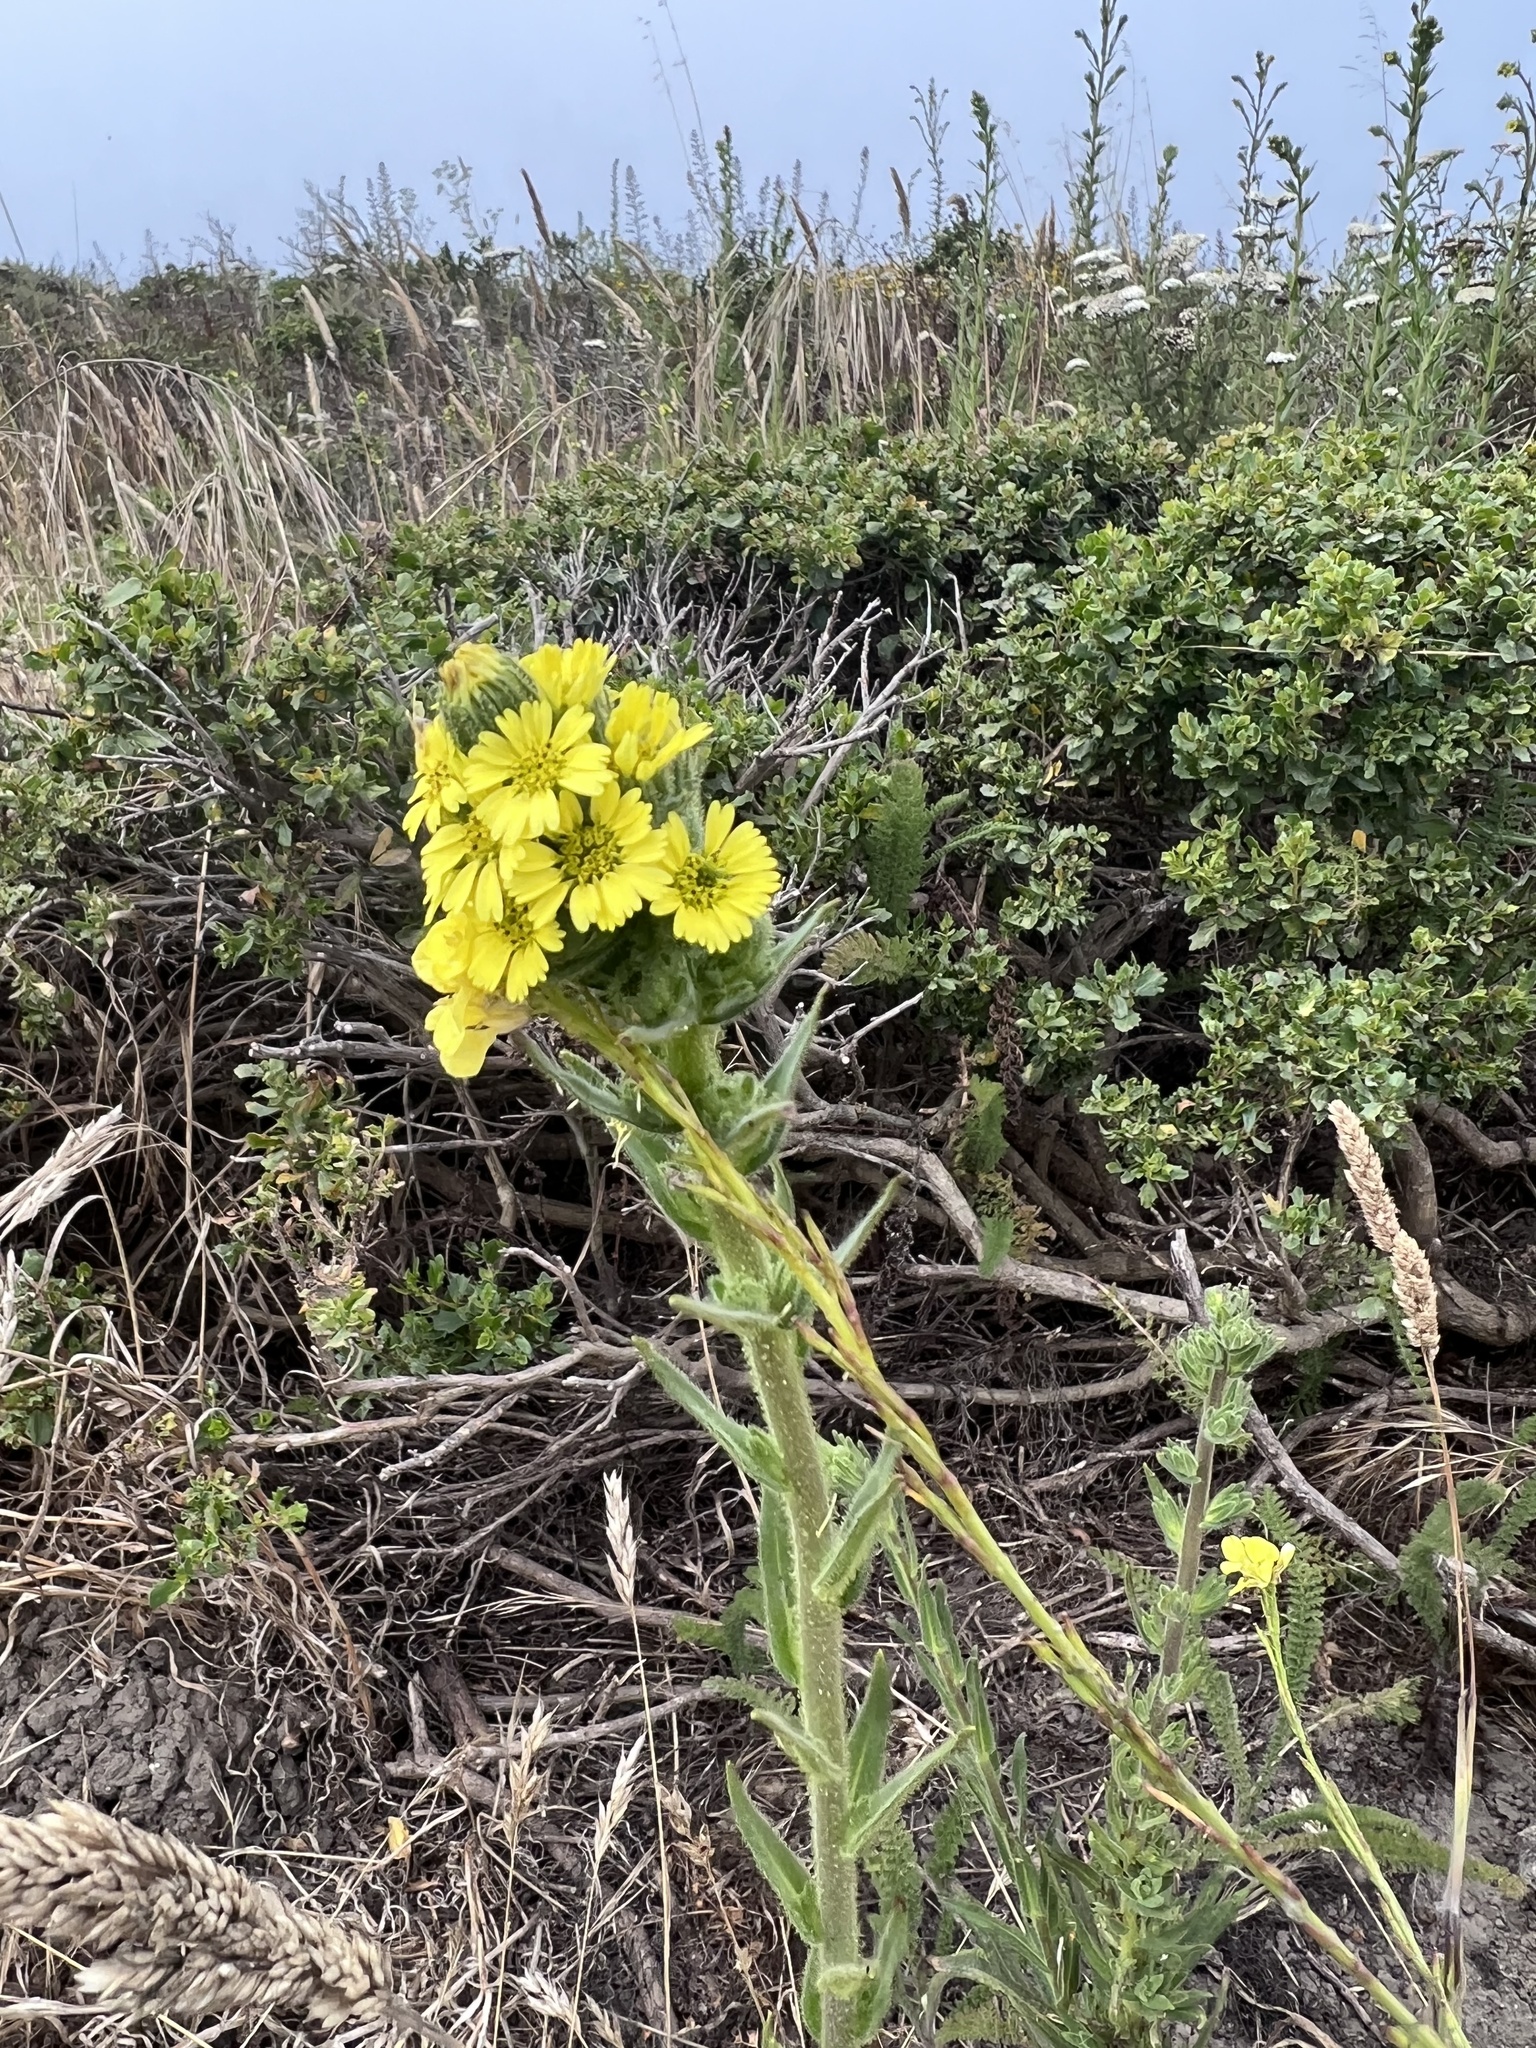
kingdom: Plantae
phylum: Tracheophyta
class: Magnoliopsida
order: Asterales
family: Asteraceae
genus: Madia
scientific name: Madia sativa
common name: Coast tarweed
